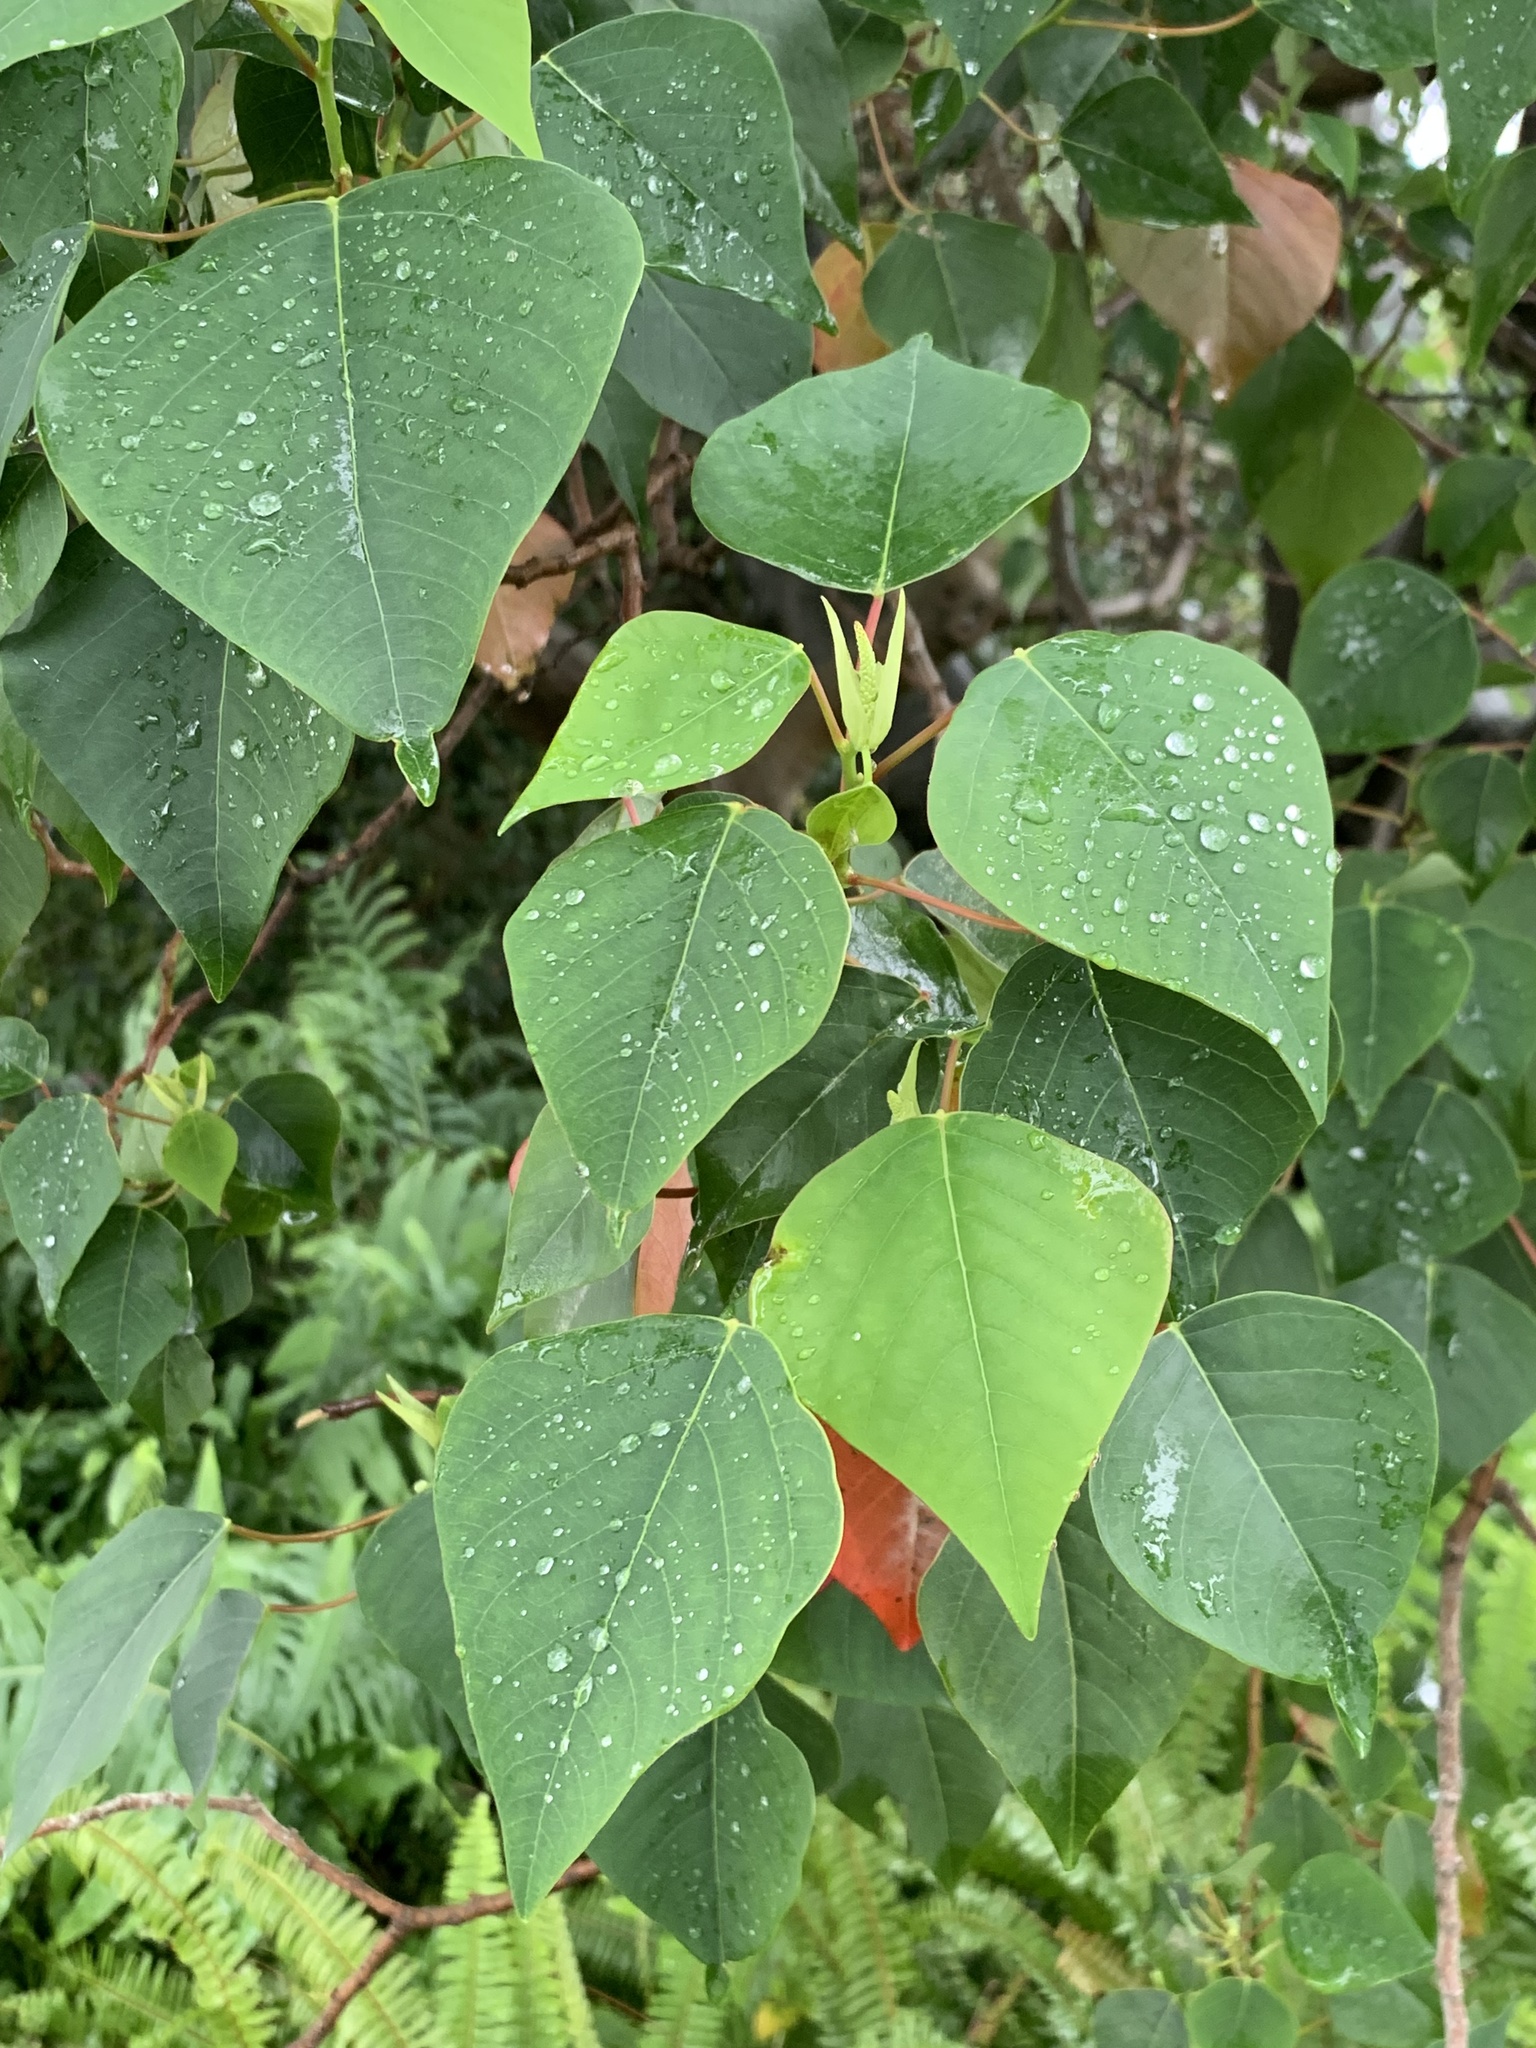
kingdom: Plantae
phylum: Tracheophyta
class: Magnoliopsida
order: Malpighiales
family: Euphorbiaceae
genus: Homalanthus
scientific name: Homalanthus populifolius
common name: Queensland poplar
